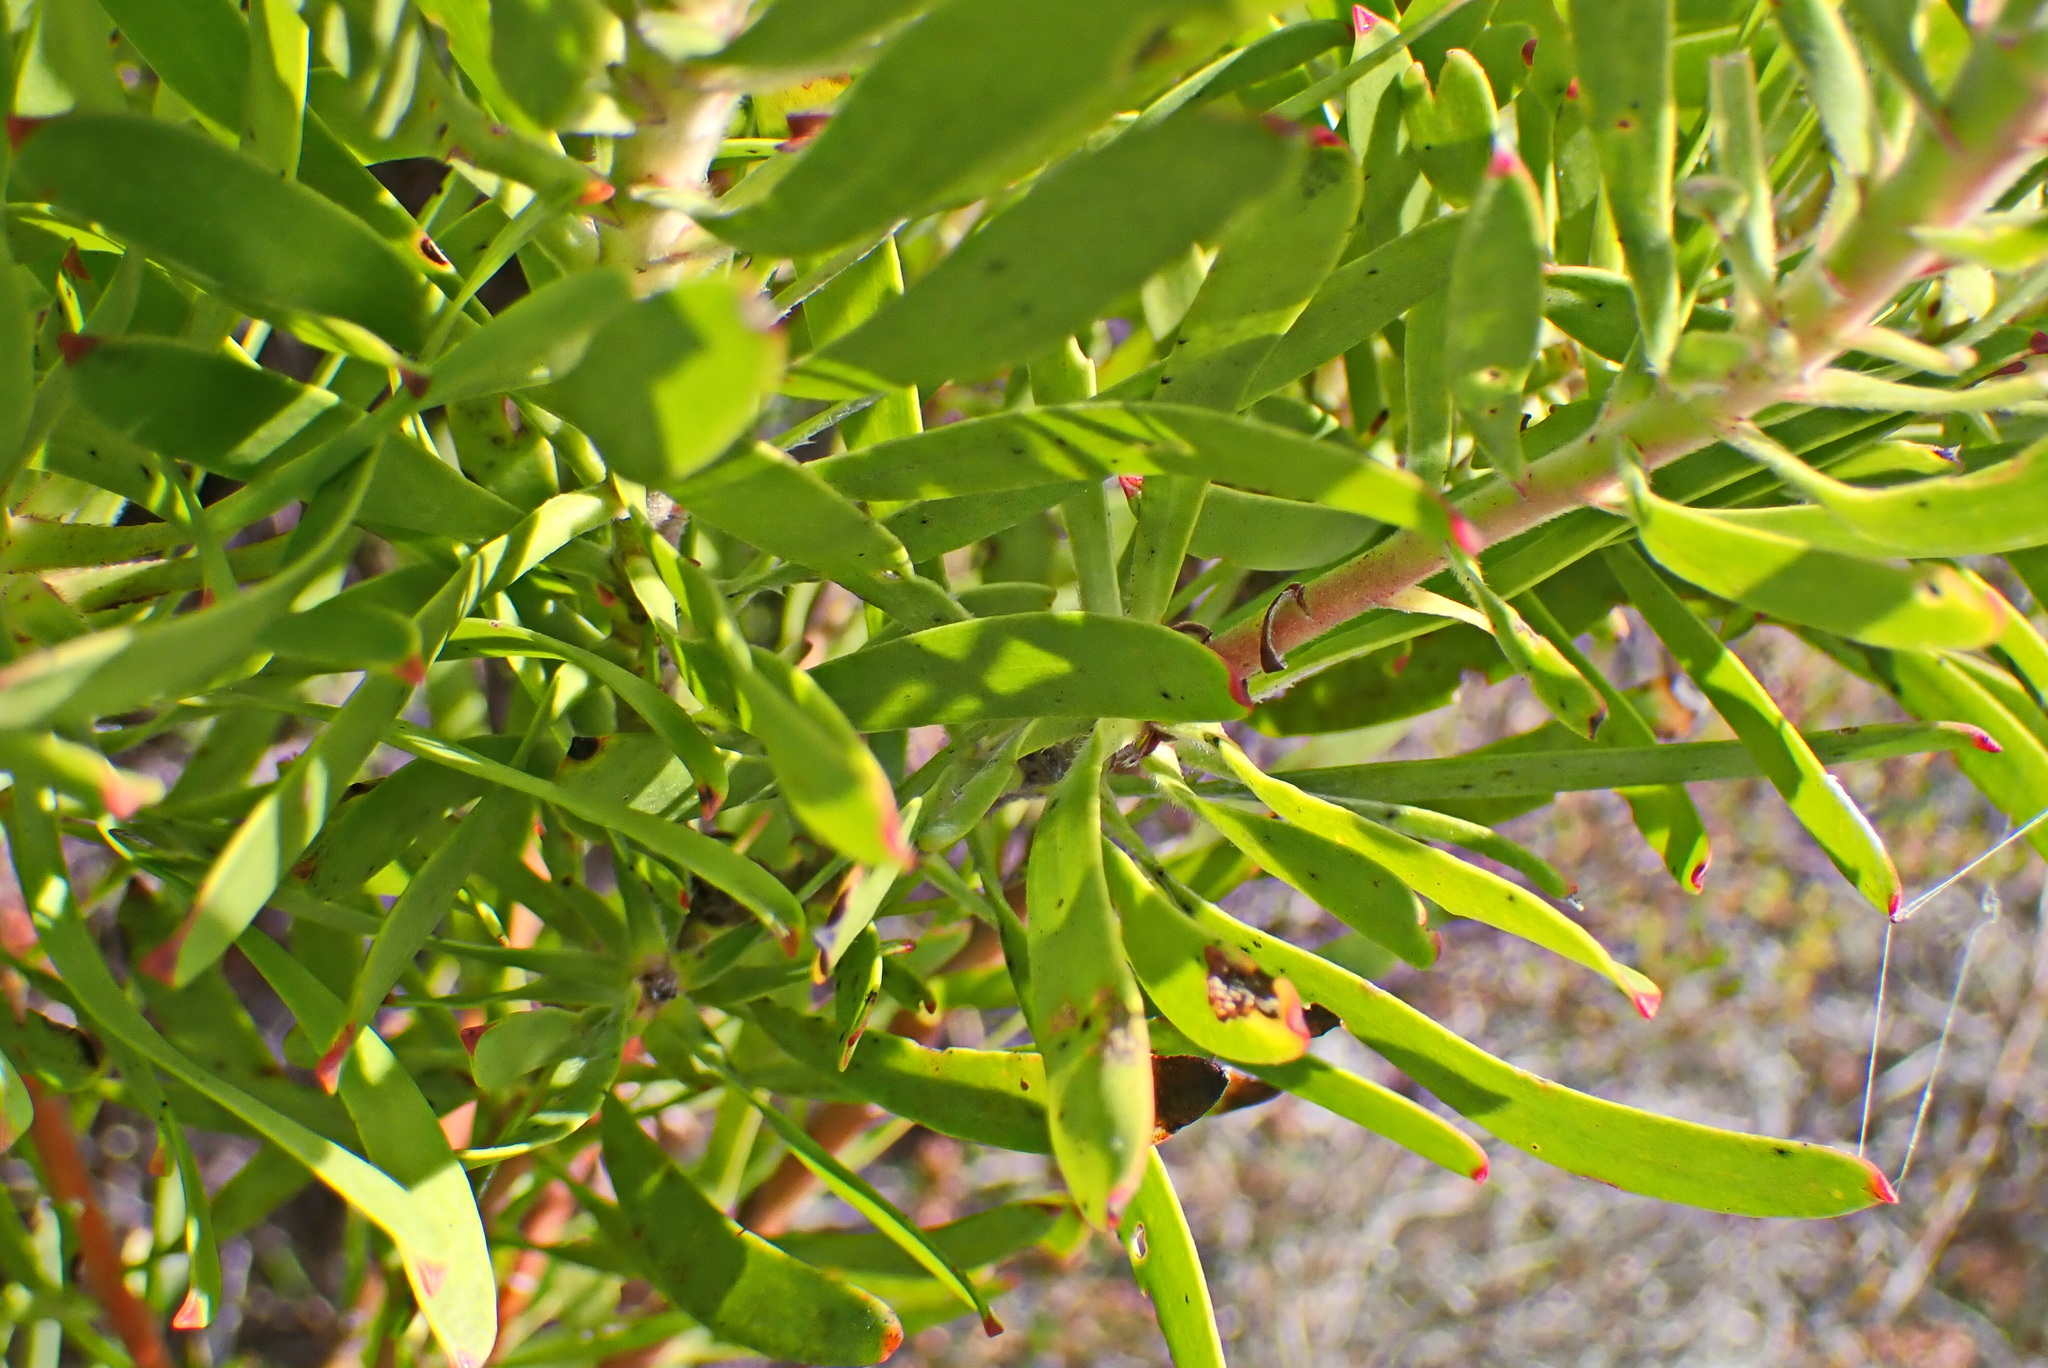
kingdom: Plantae
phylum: Tracheophyta
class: Magnoliopsida
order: Proteales
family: Proteaceae
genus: Leucadendron
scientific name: Leucadendron meridianum
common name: Limestone conebush
